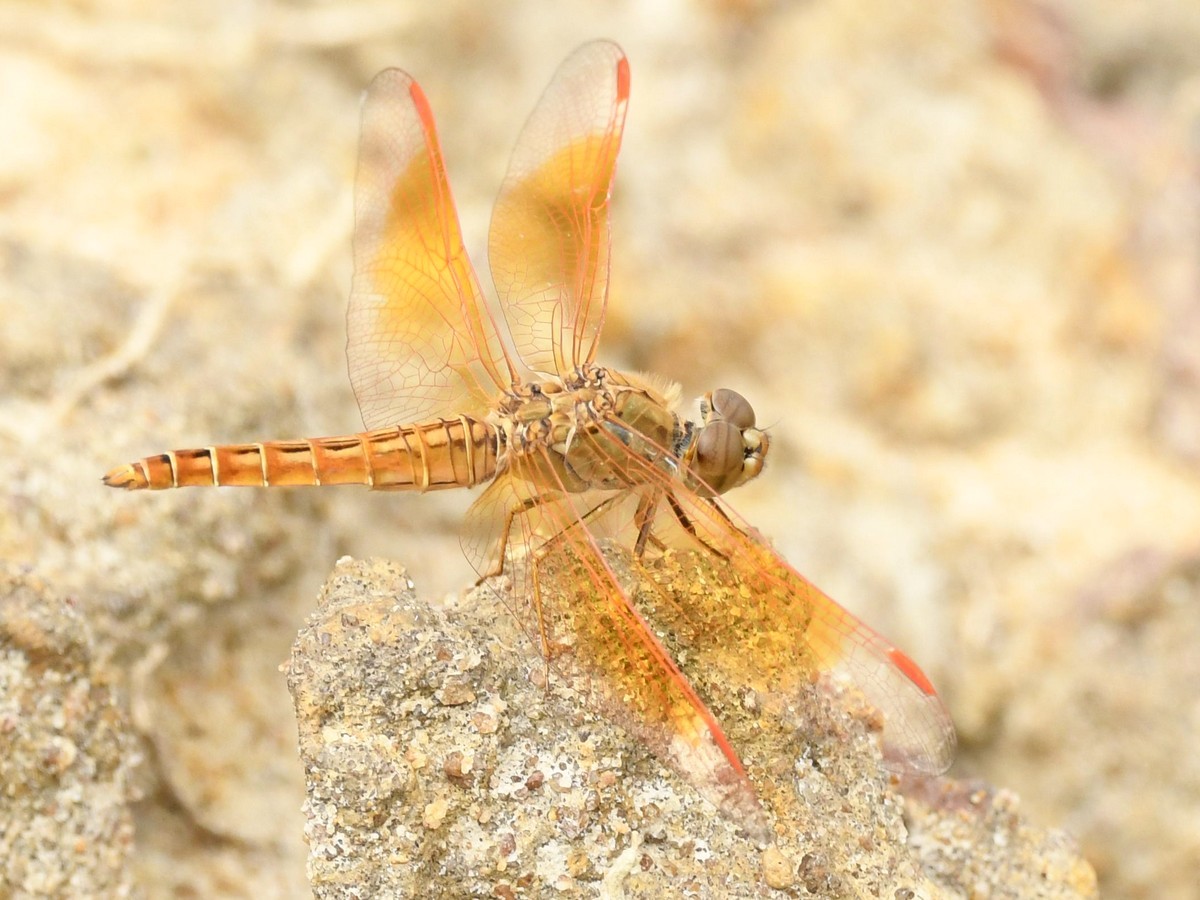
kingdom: Animalia
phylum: Arthropoda
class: Insecta
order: Odonata
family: Libellulidae
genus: Brachythemis
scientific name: Brachythemis contaminata
